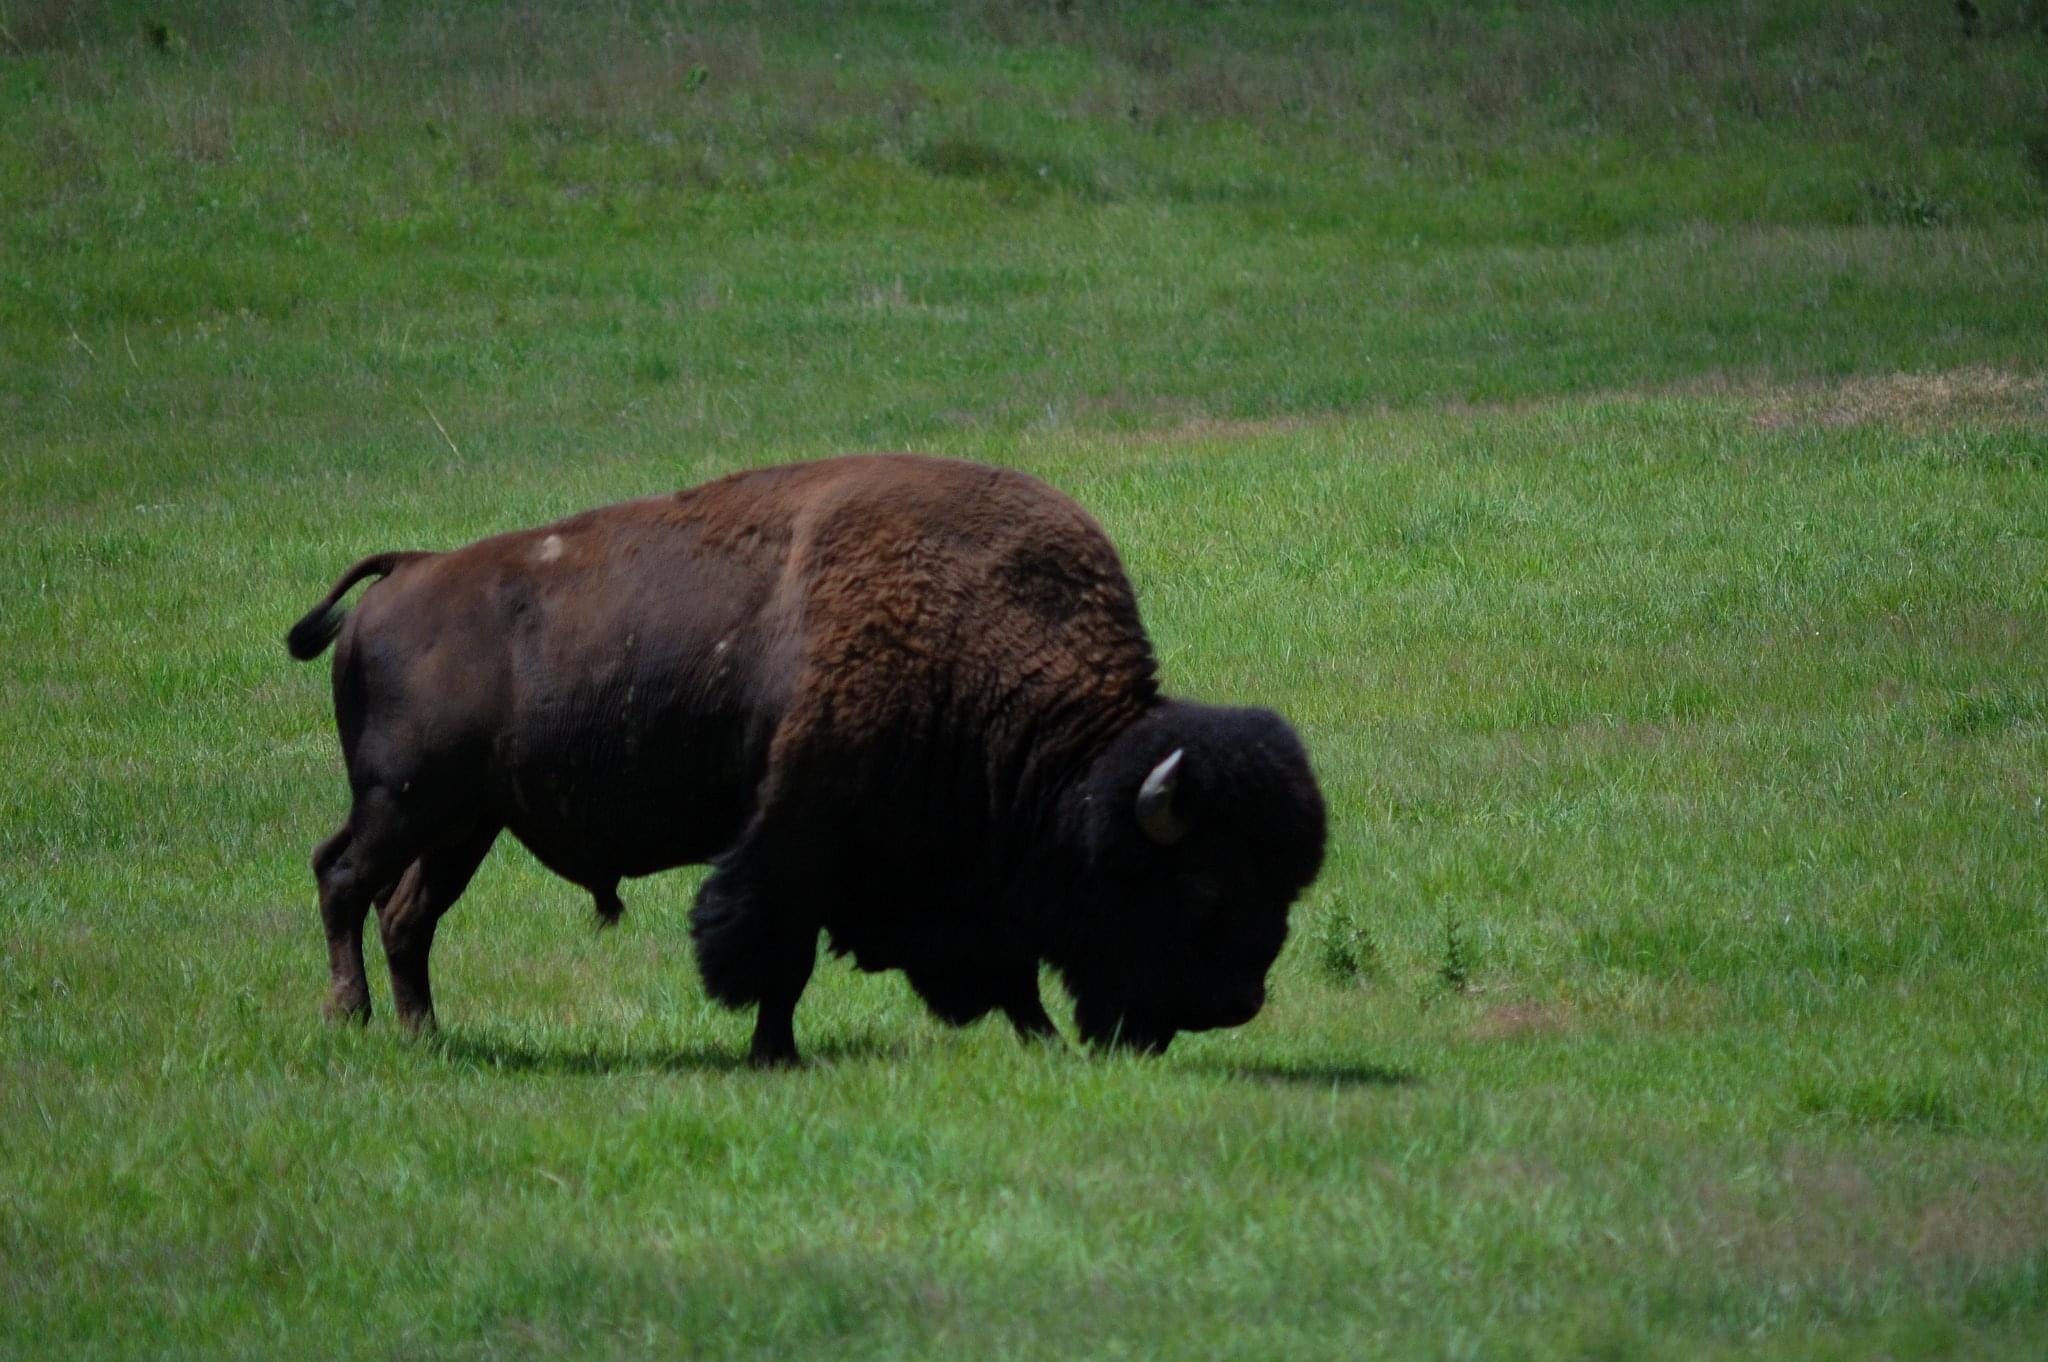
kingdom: Animalia
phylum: Chordata
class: Mammalia
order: Artiodactyla
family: Bovidae
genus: Bison
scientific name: Bison bison
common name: American bison
